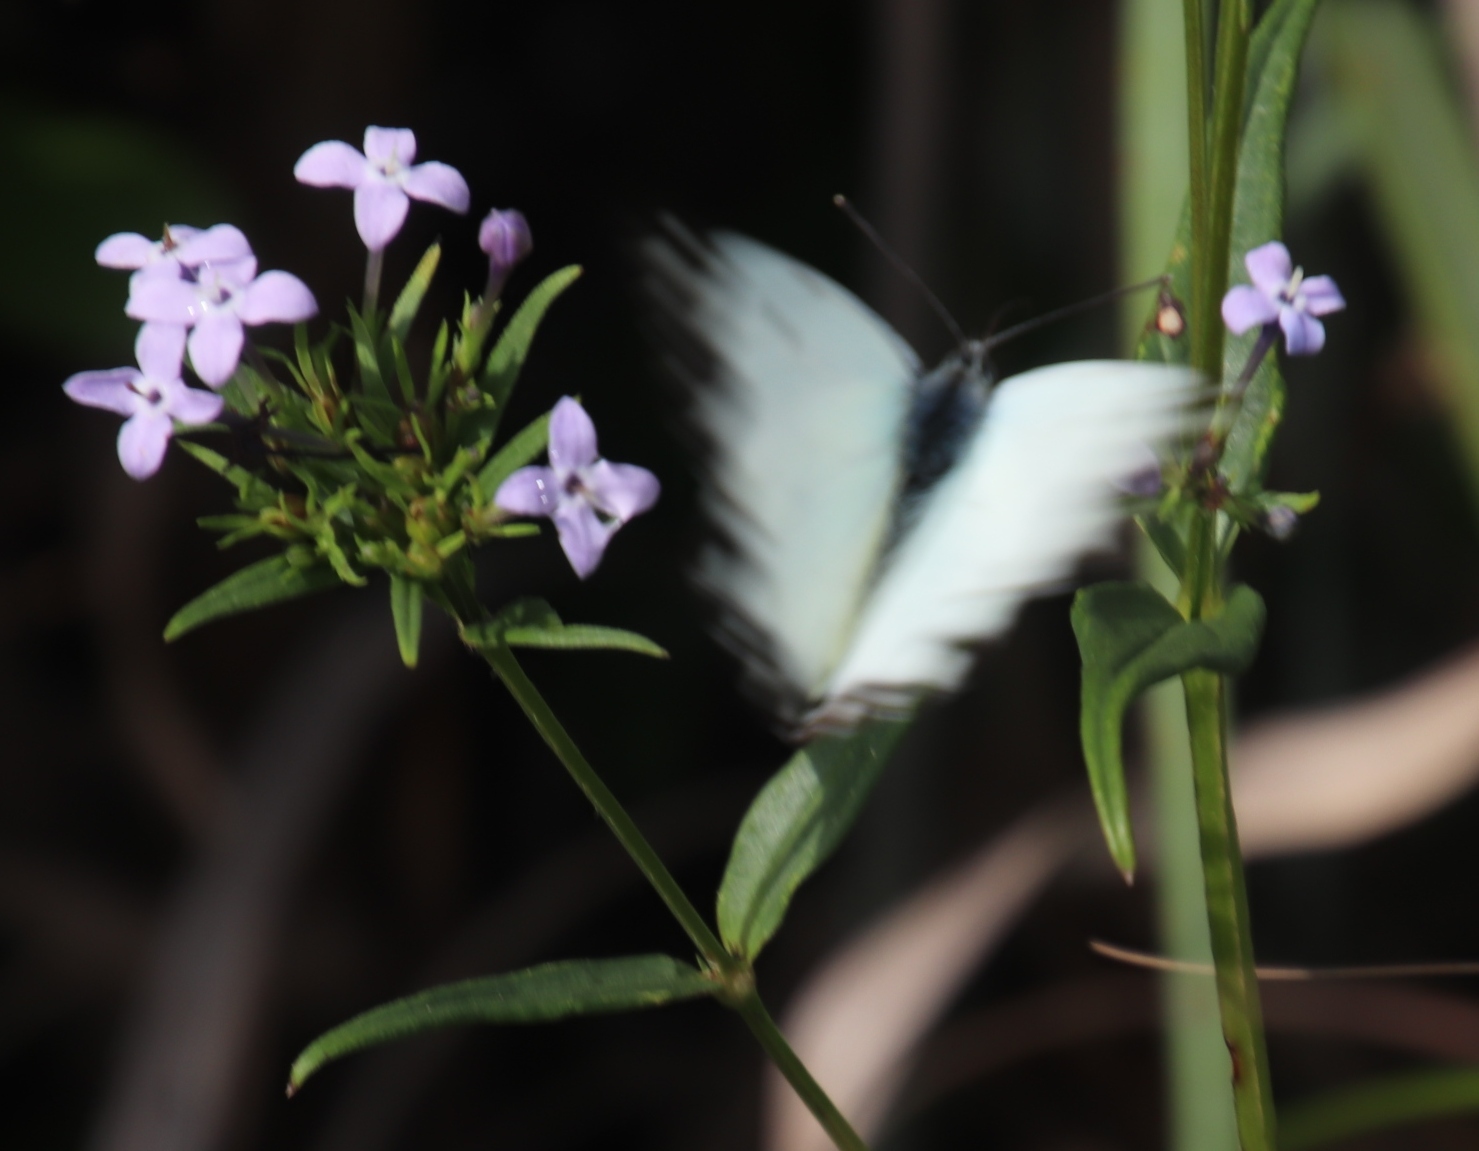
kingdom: Animalia
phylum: Arthropoda
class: Insecta
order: Lepidoptera
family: Pieridae
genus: Belenois
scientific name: Belenois creona
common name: African caper white
